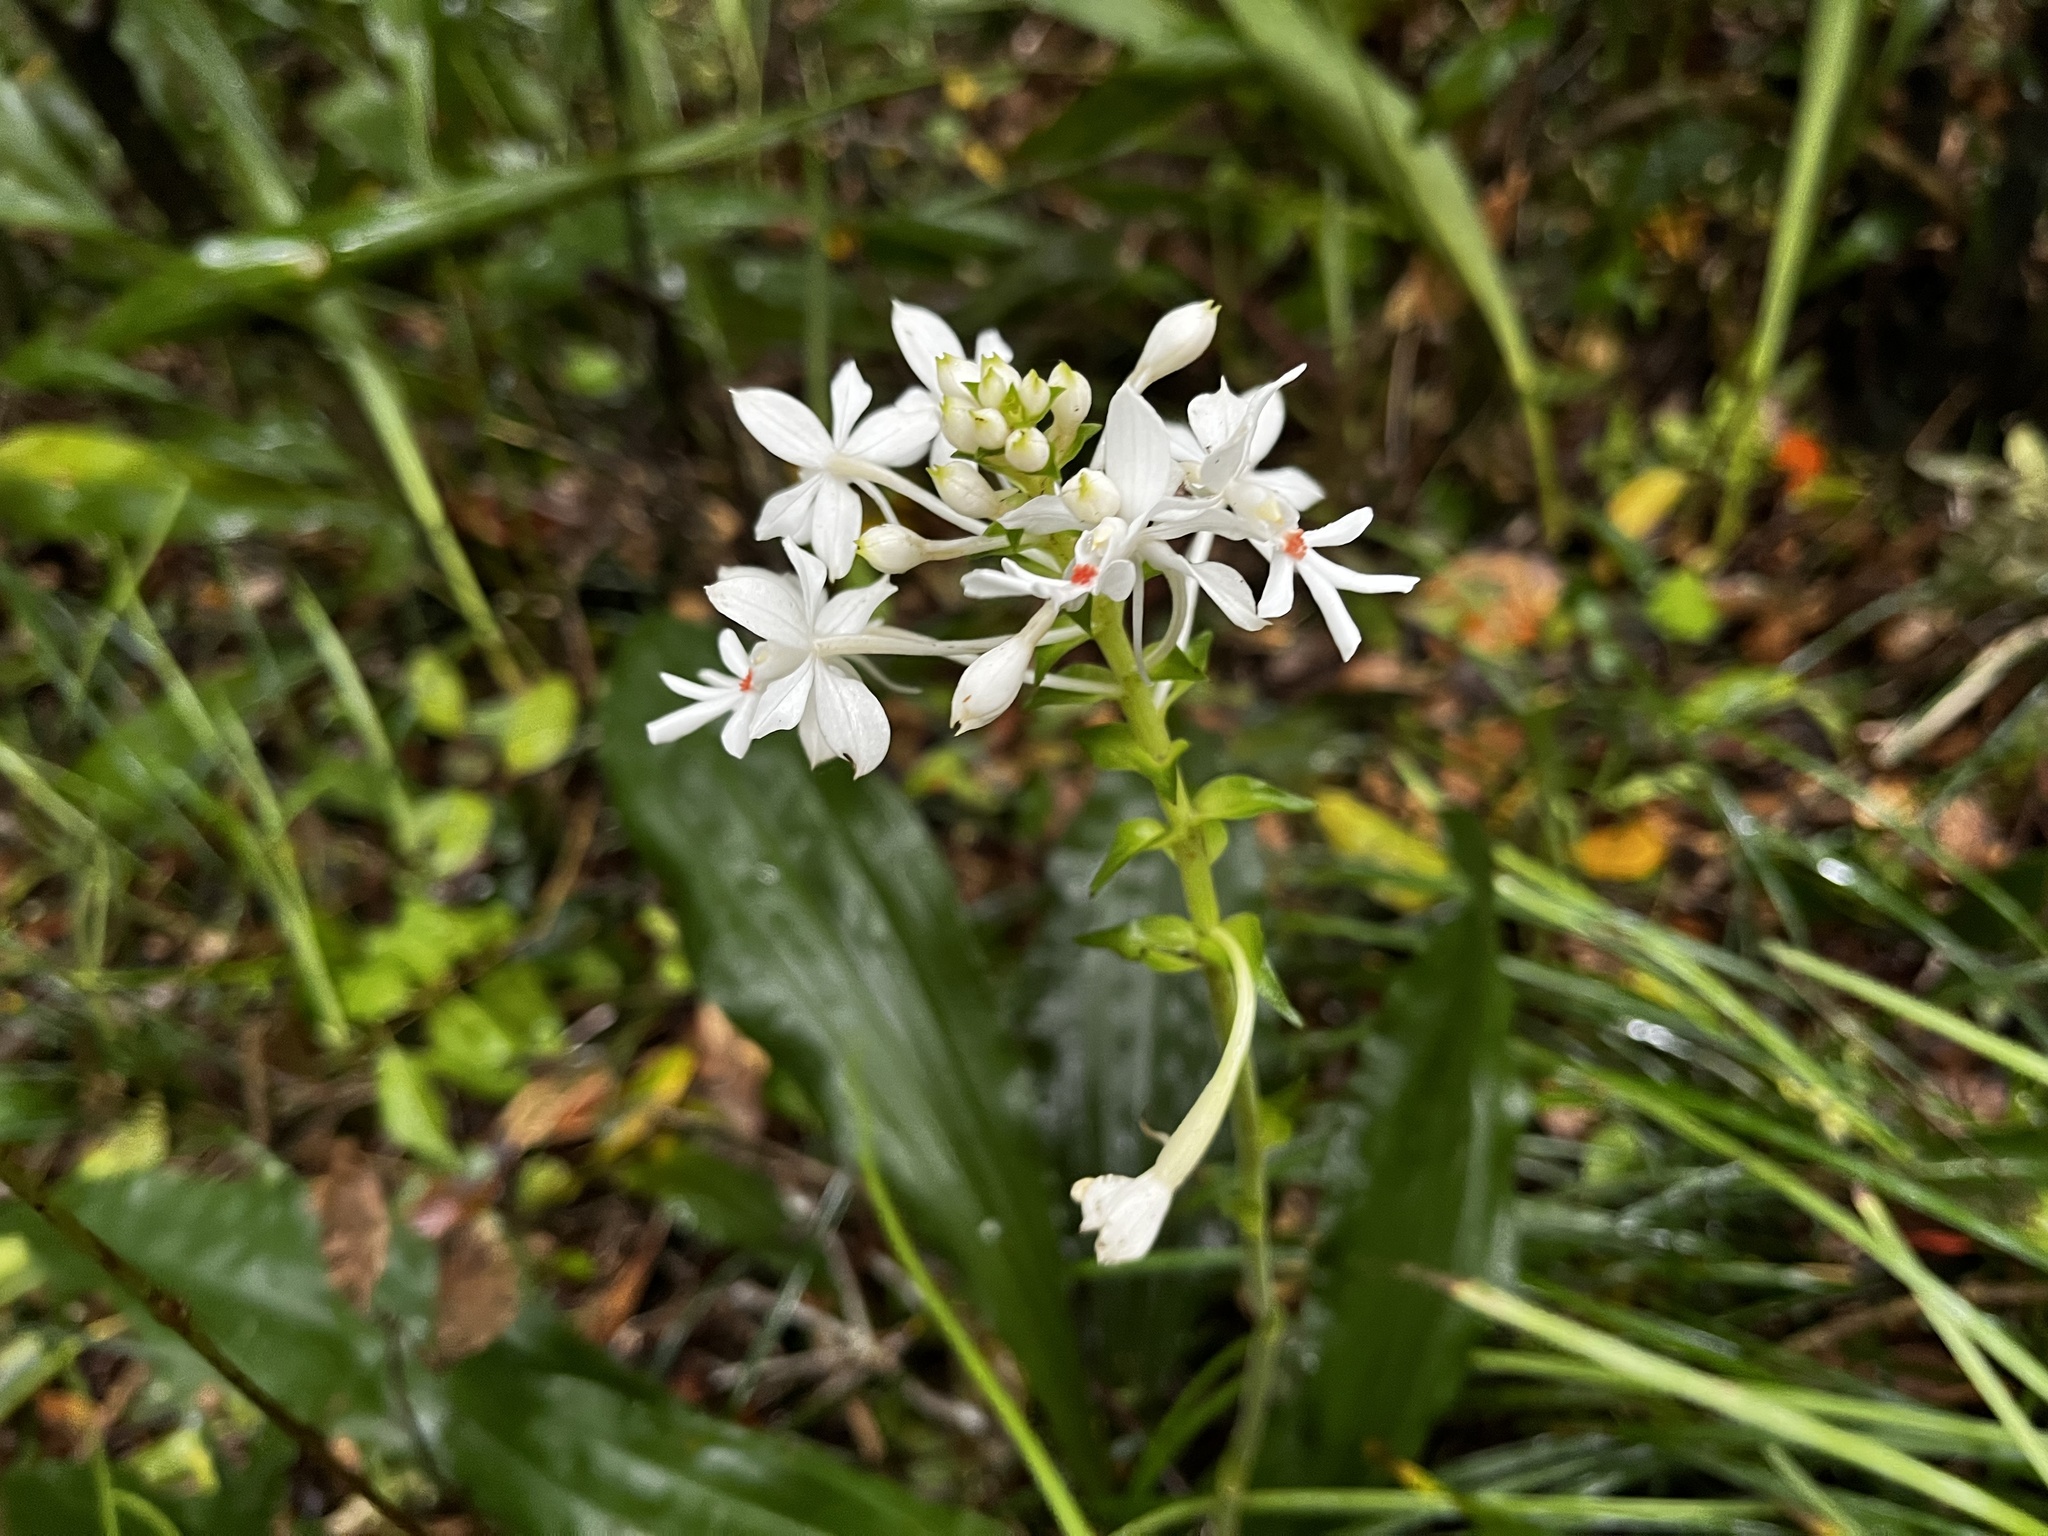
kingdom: Plantae
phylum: Tracheophyta
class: Liliopsida
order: Asparagales
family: Orchidaceae
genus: Calanthe
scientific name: Calanthe triplicata
